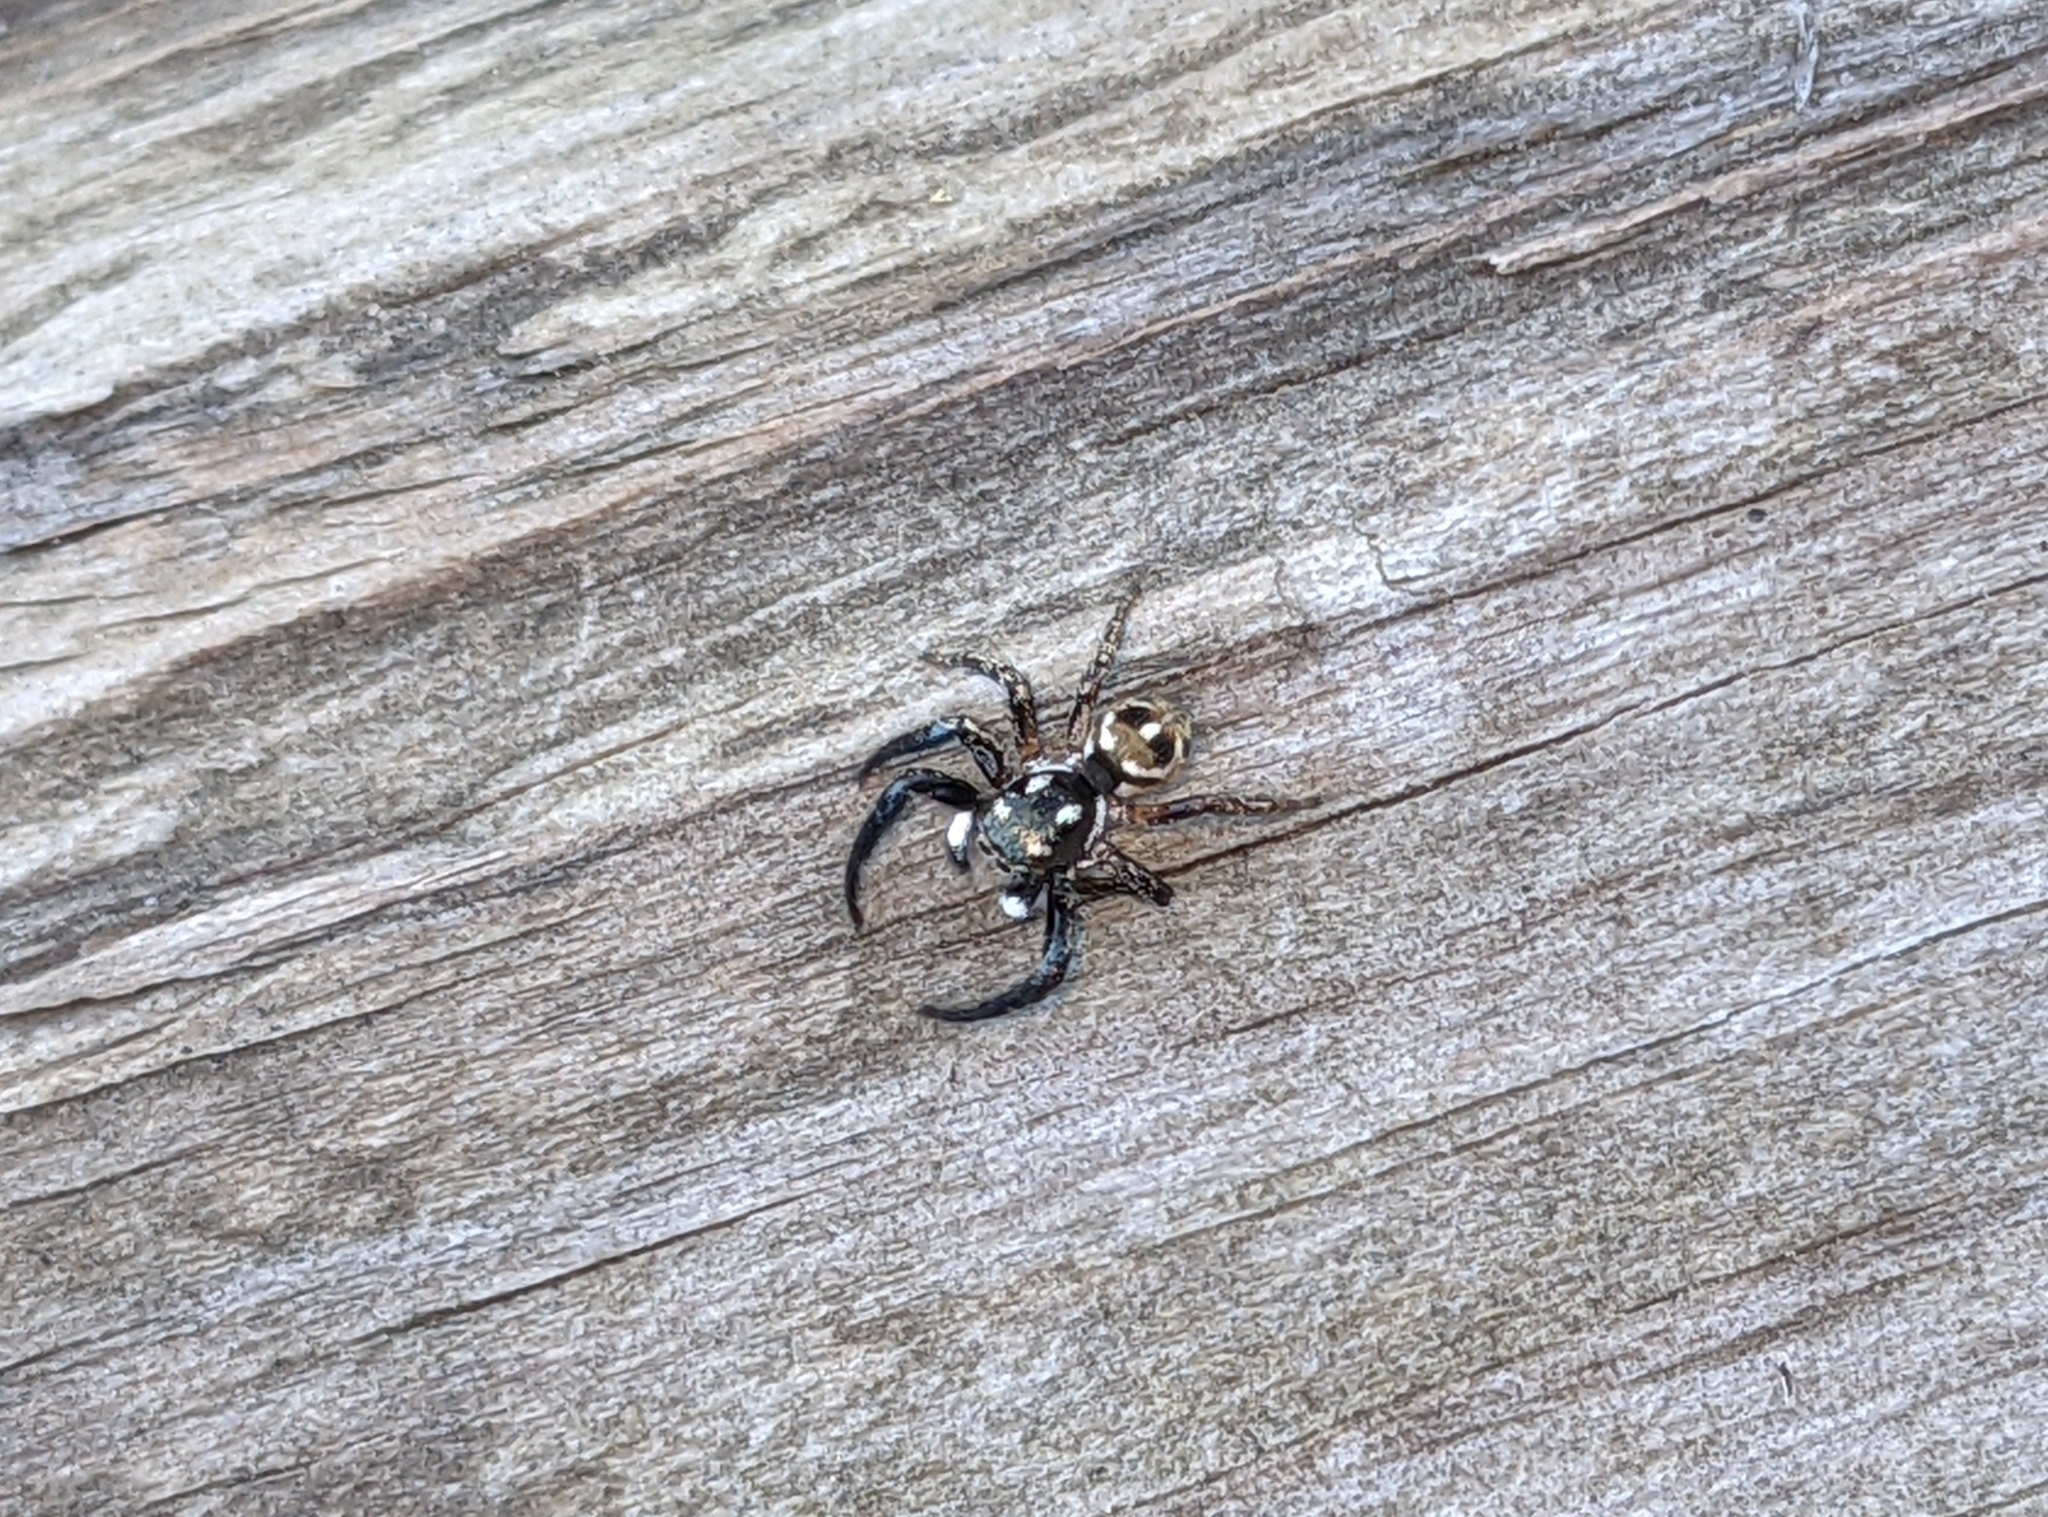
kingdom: Animalia
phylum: Arthropoda
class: Arachnida
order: Araneae
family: Salticidae
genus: Anasaitis
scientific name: Anasaitis canosa
